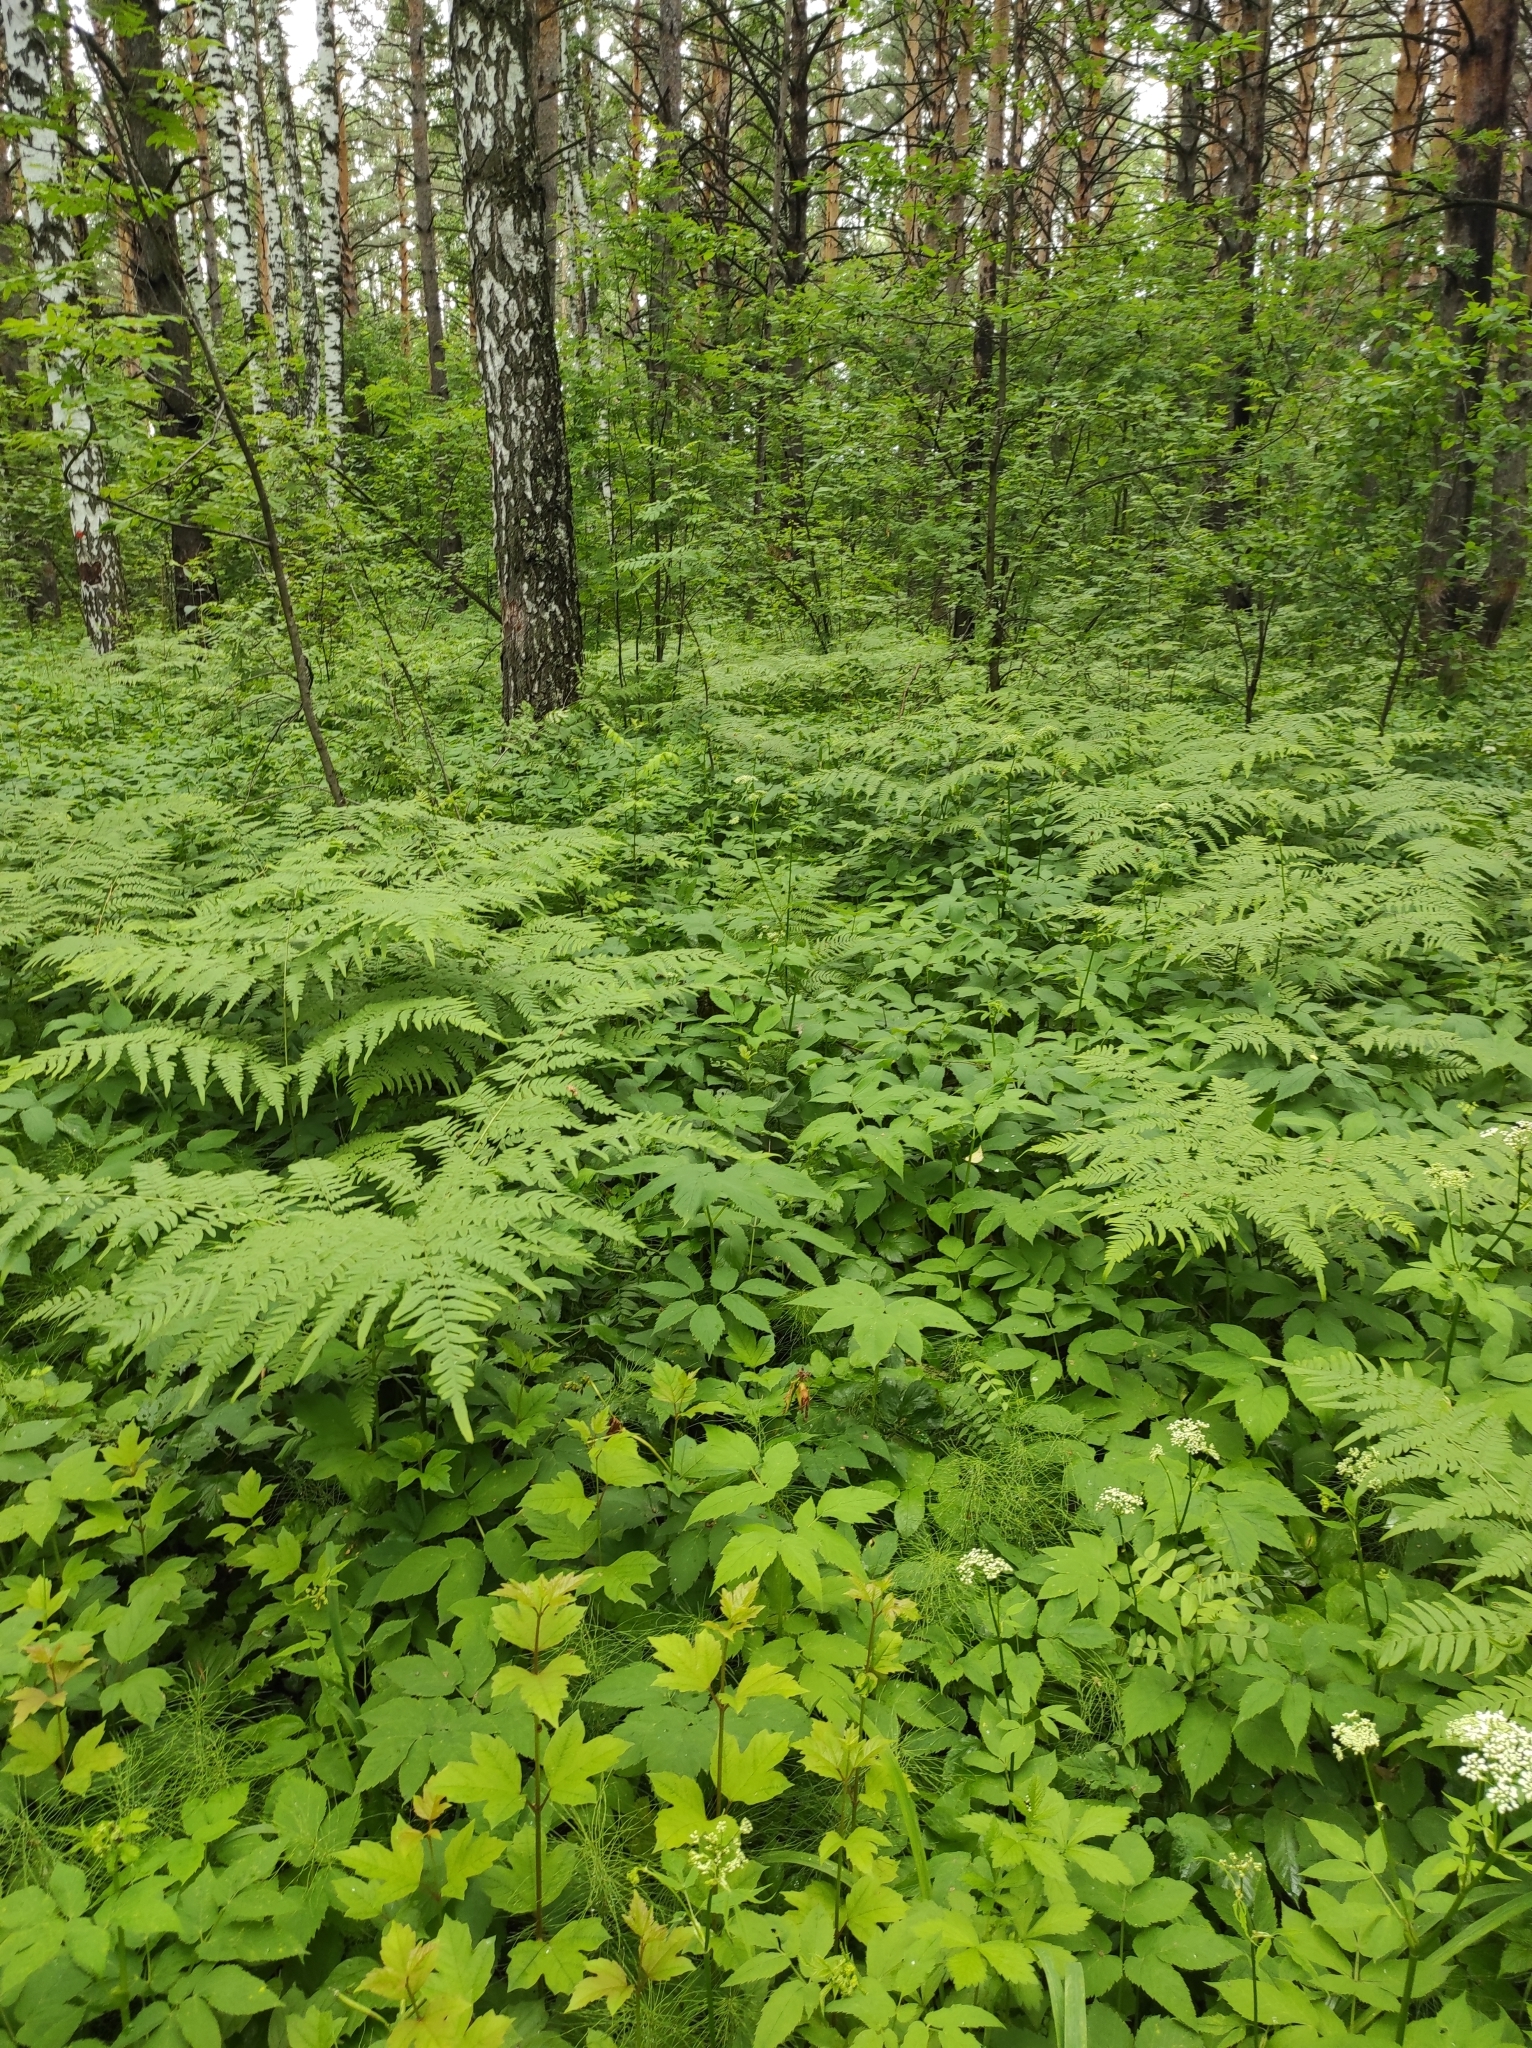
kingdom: Plantae
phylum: Tracheophyta
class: Polypodiopsida
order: Polypodiales
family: Dennstaedtiaceae
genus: Pteridium
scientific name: Pteridium aquilinum
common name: Bracken
